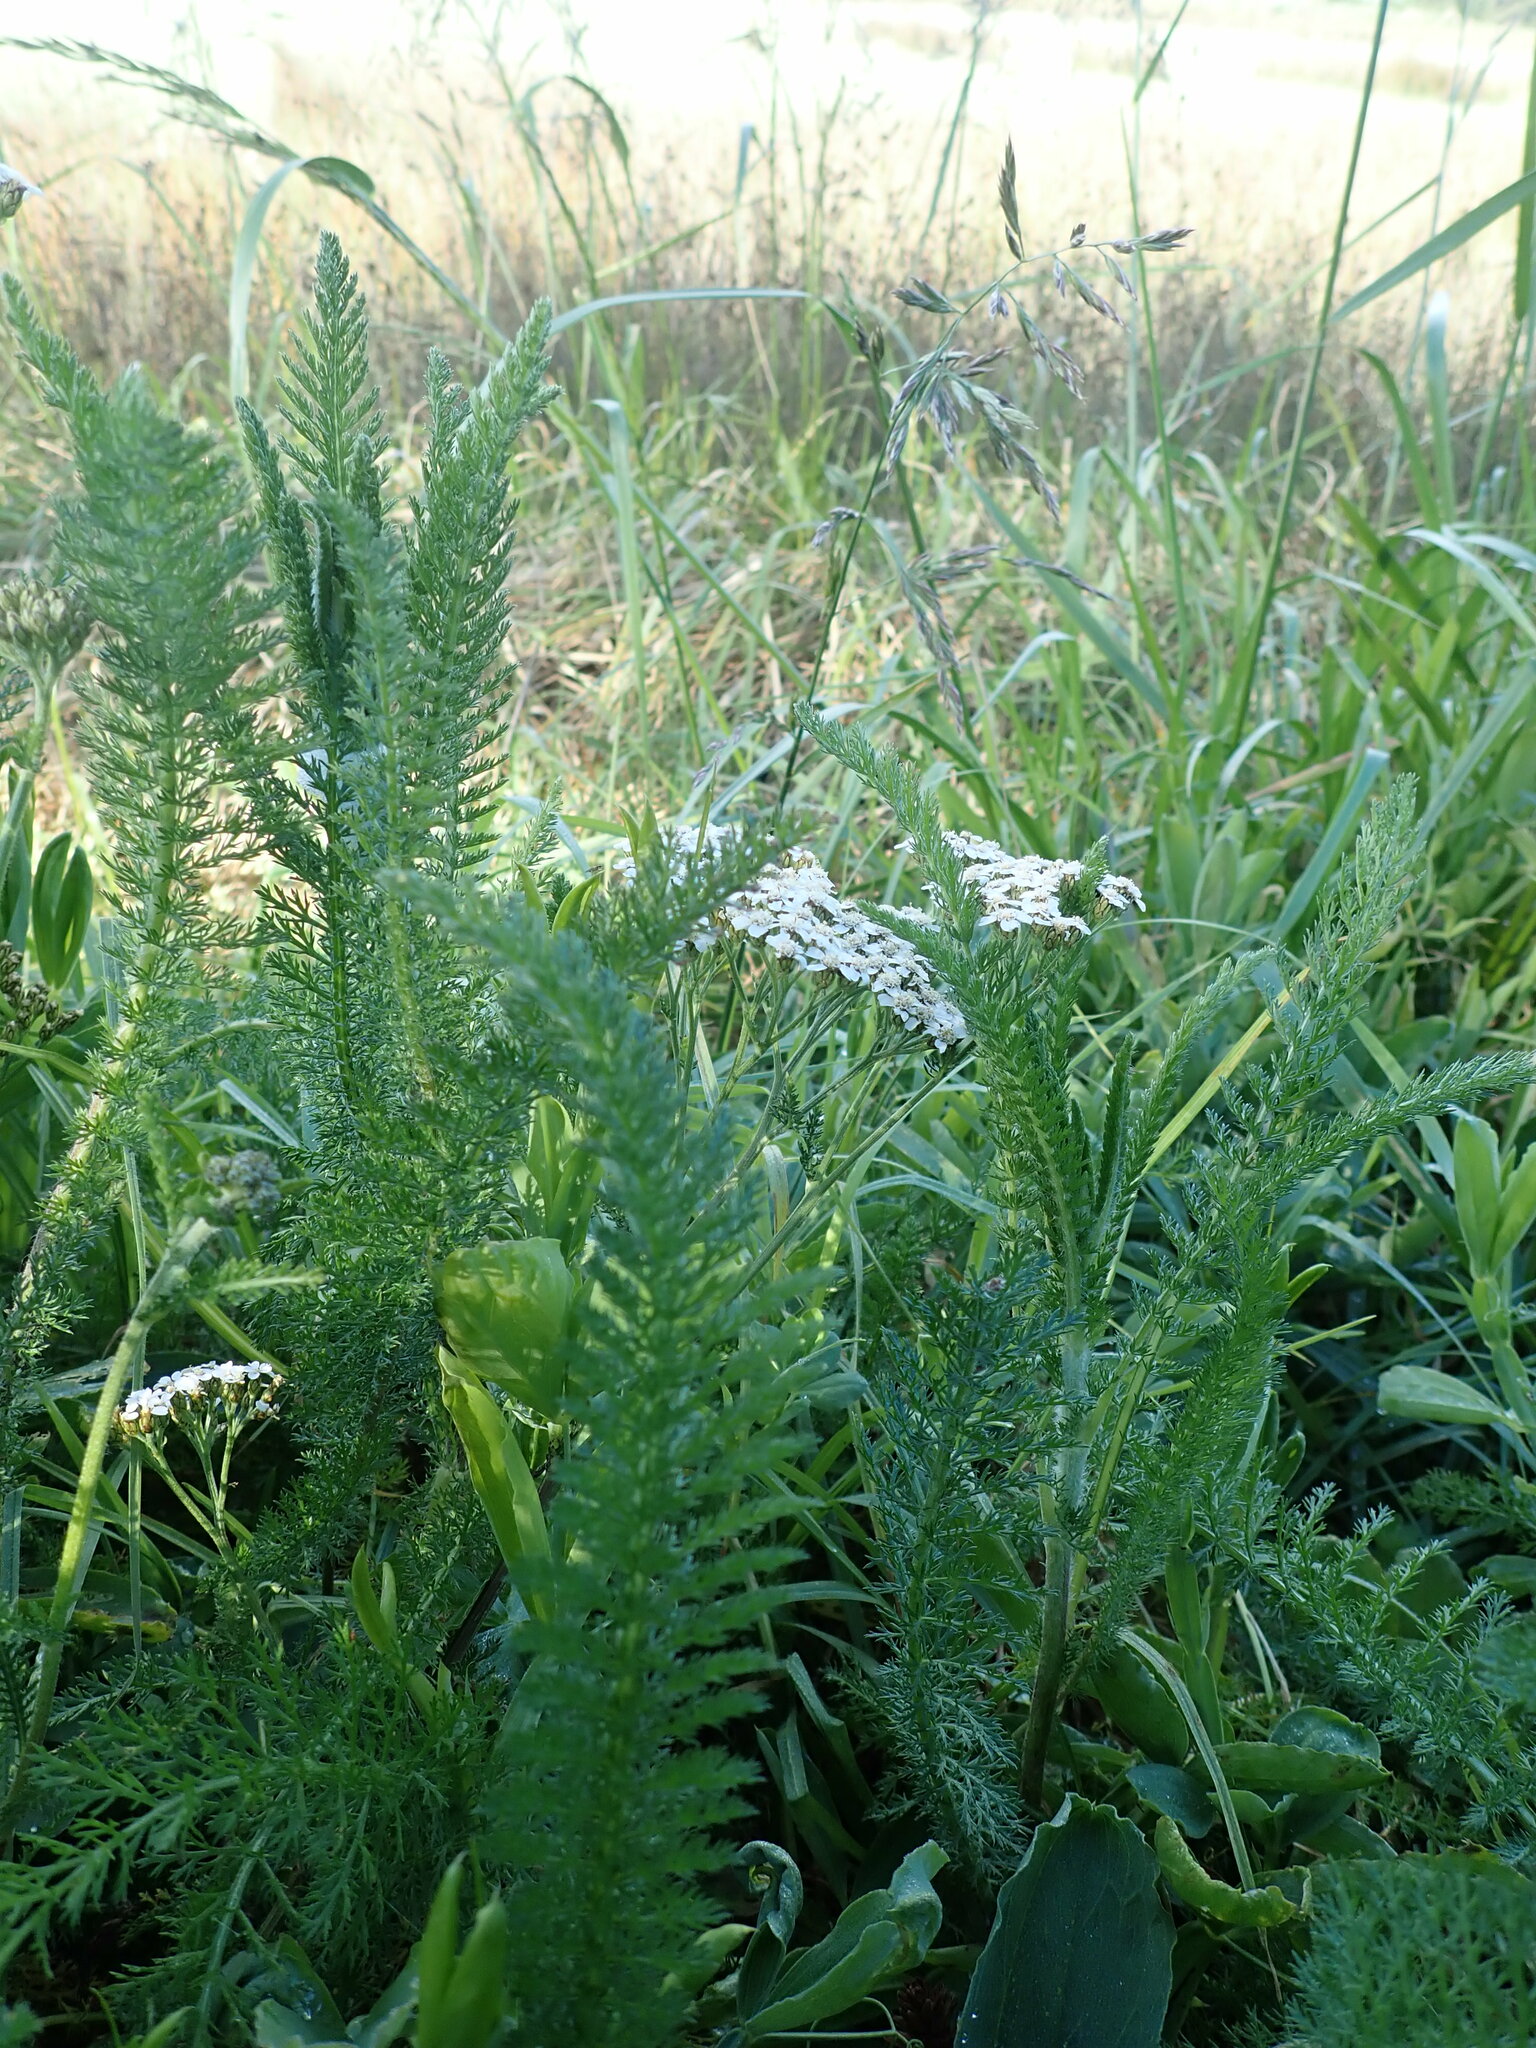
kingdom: Plantae
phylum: Tracheophyta
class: Magnoliopsida
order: Asterales
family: Asteraceae
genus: Achillea
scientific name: Achillea millefolium
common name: Yarrow
